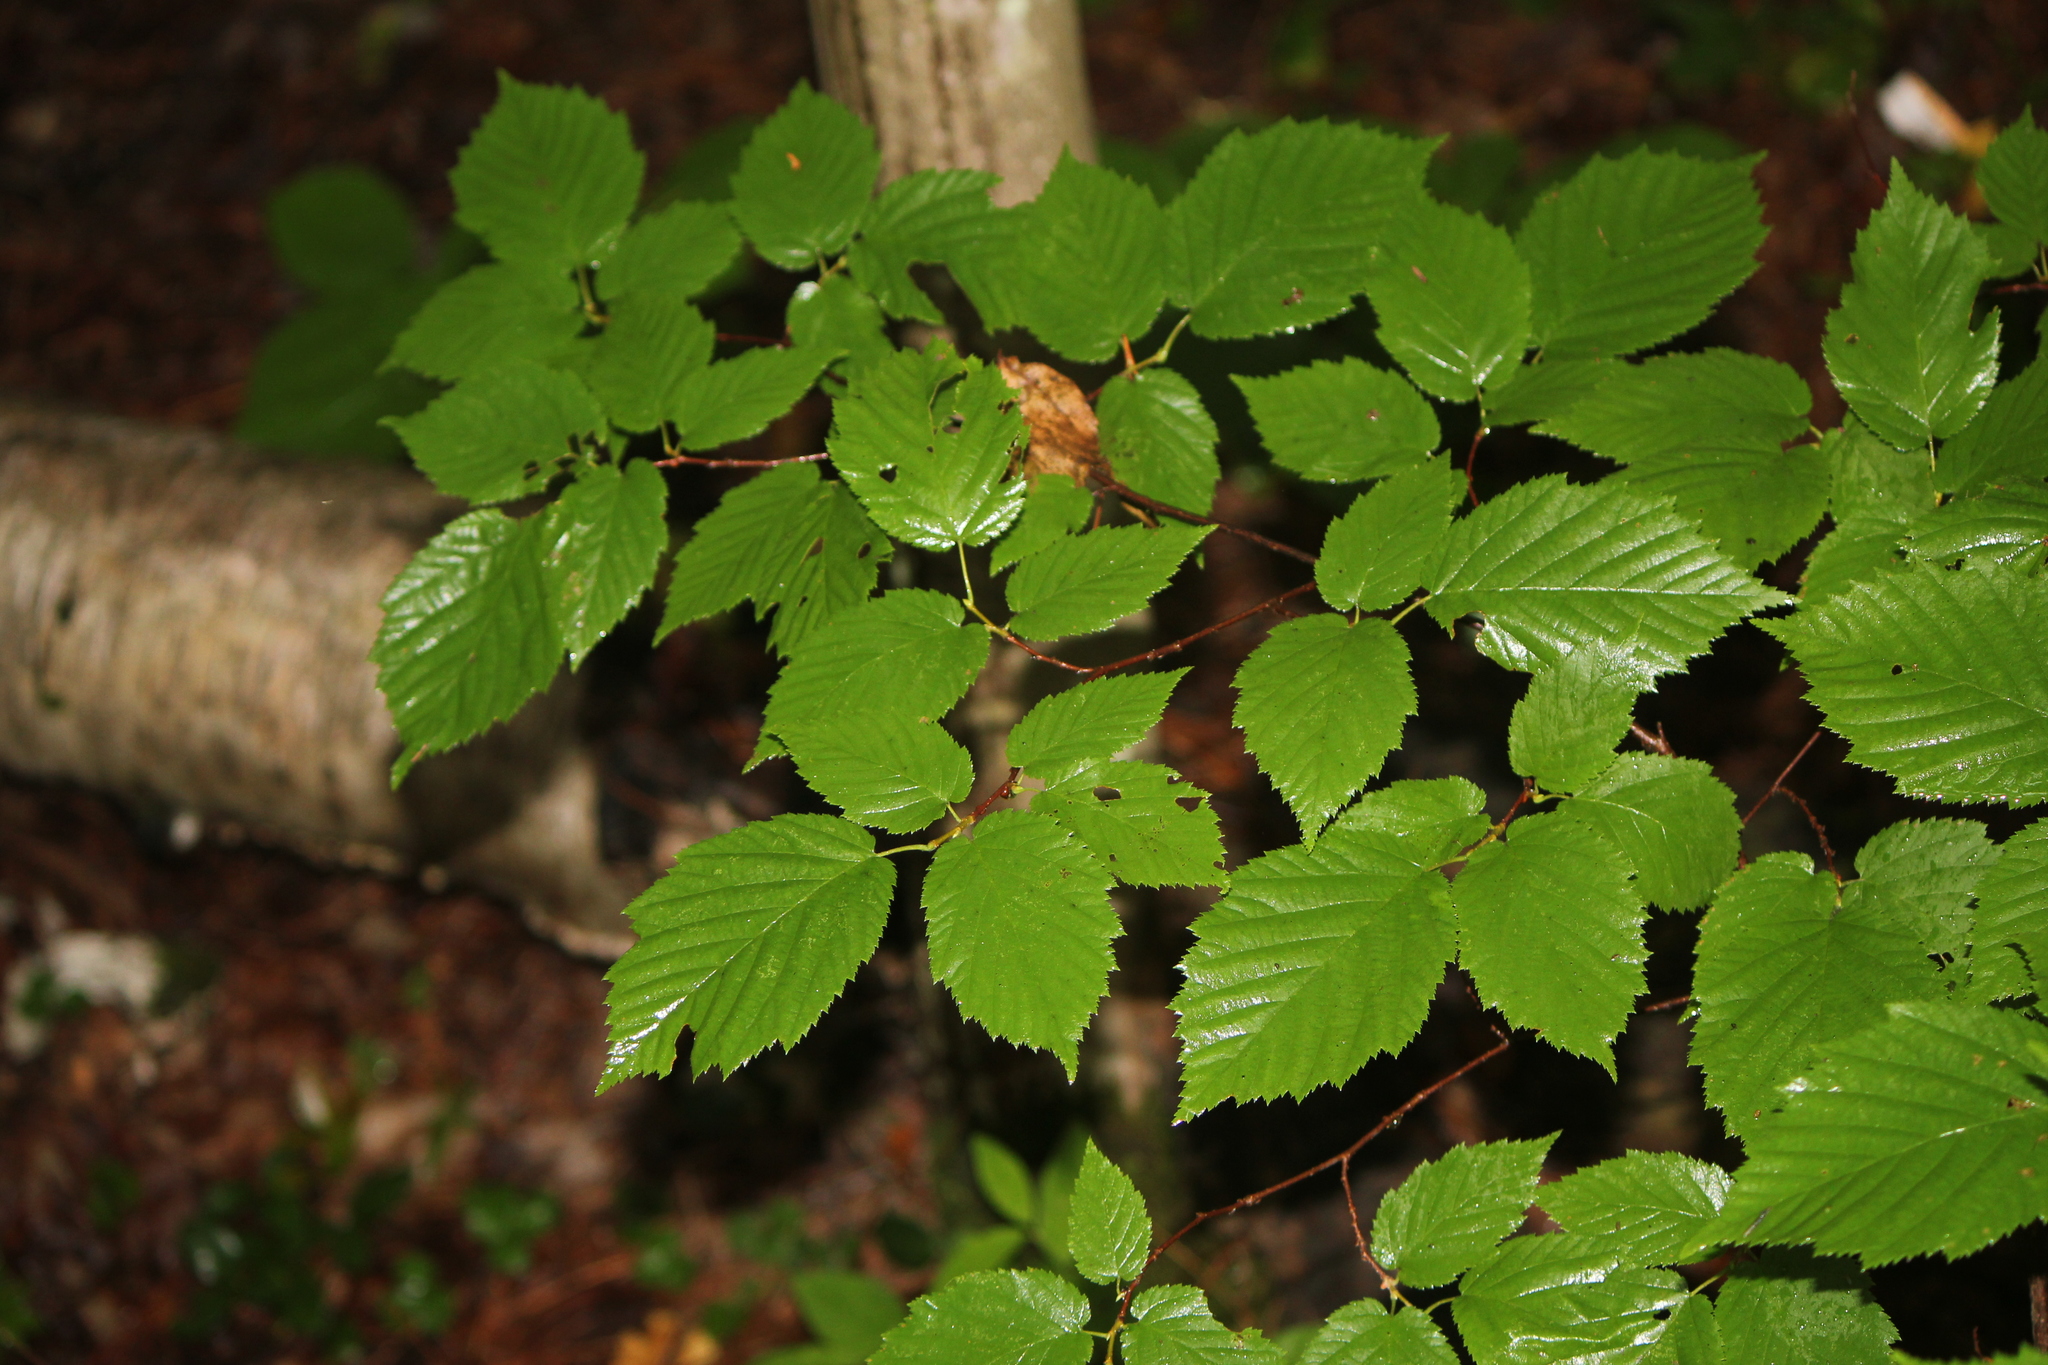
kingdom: Plantae
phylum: Tracheophyta
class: Magnoliopsida
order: Fagales
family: Betulaceae
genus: Corylus
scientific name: Corylus cornuta
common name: Beaked hazel
